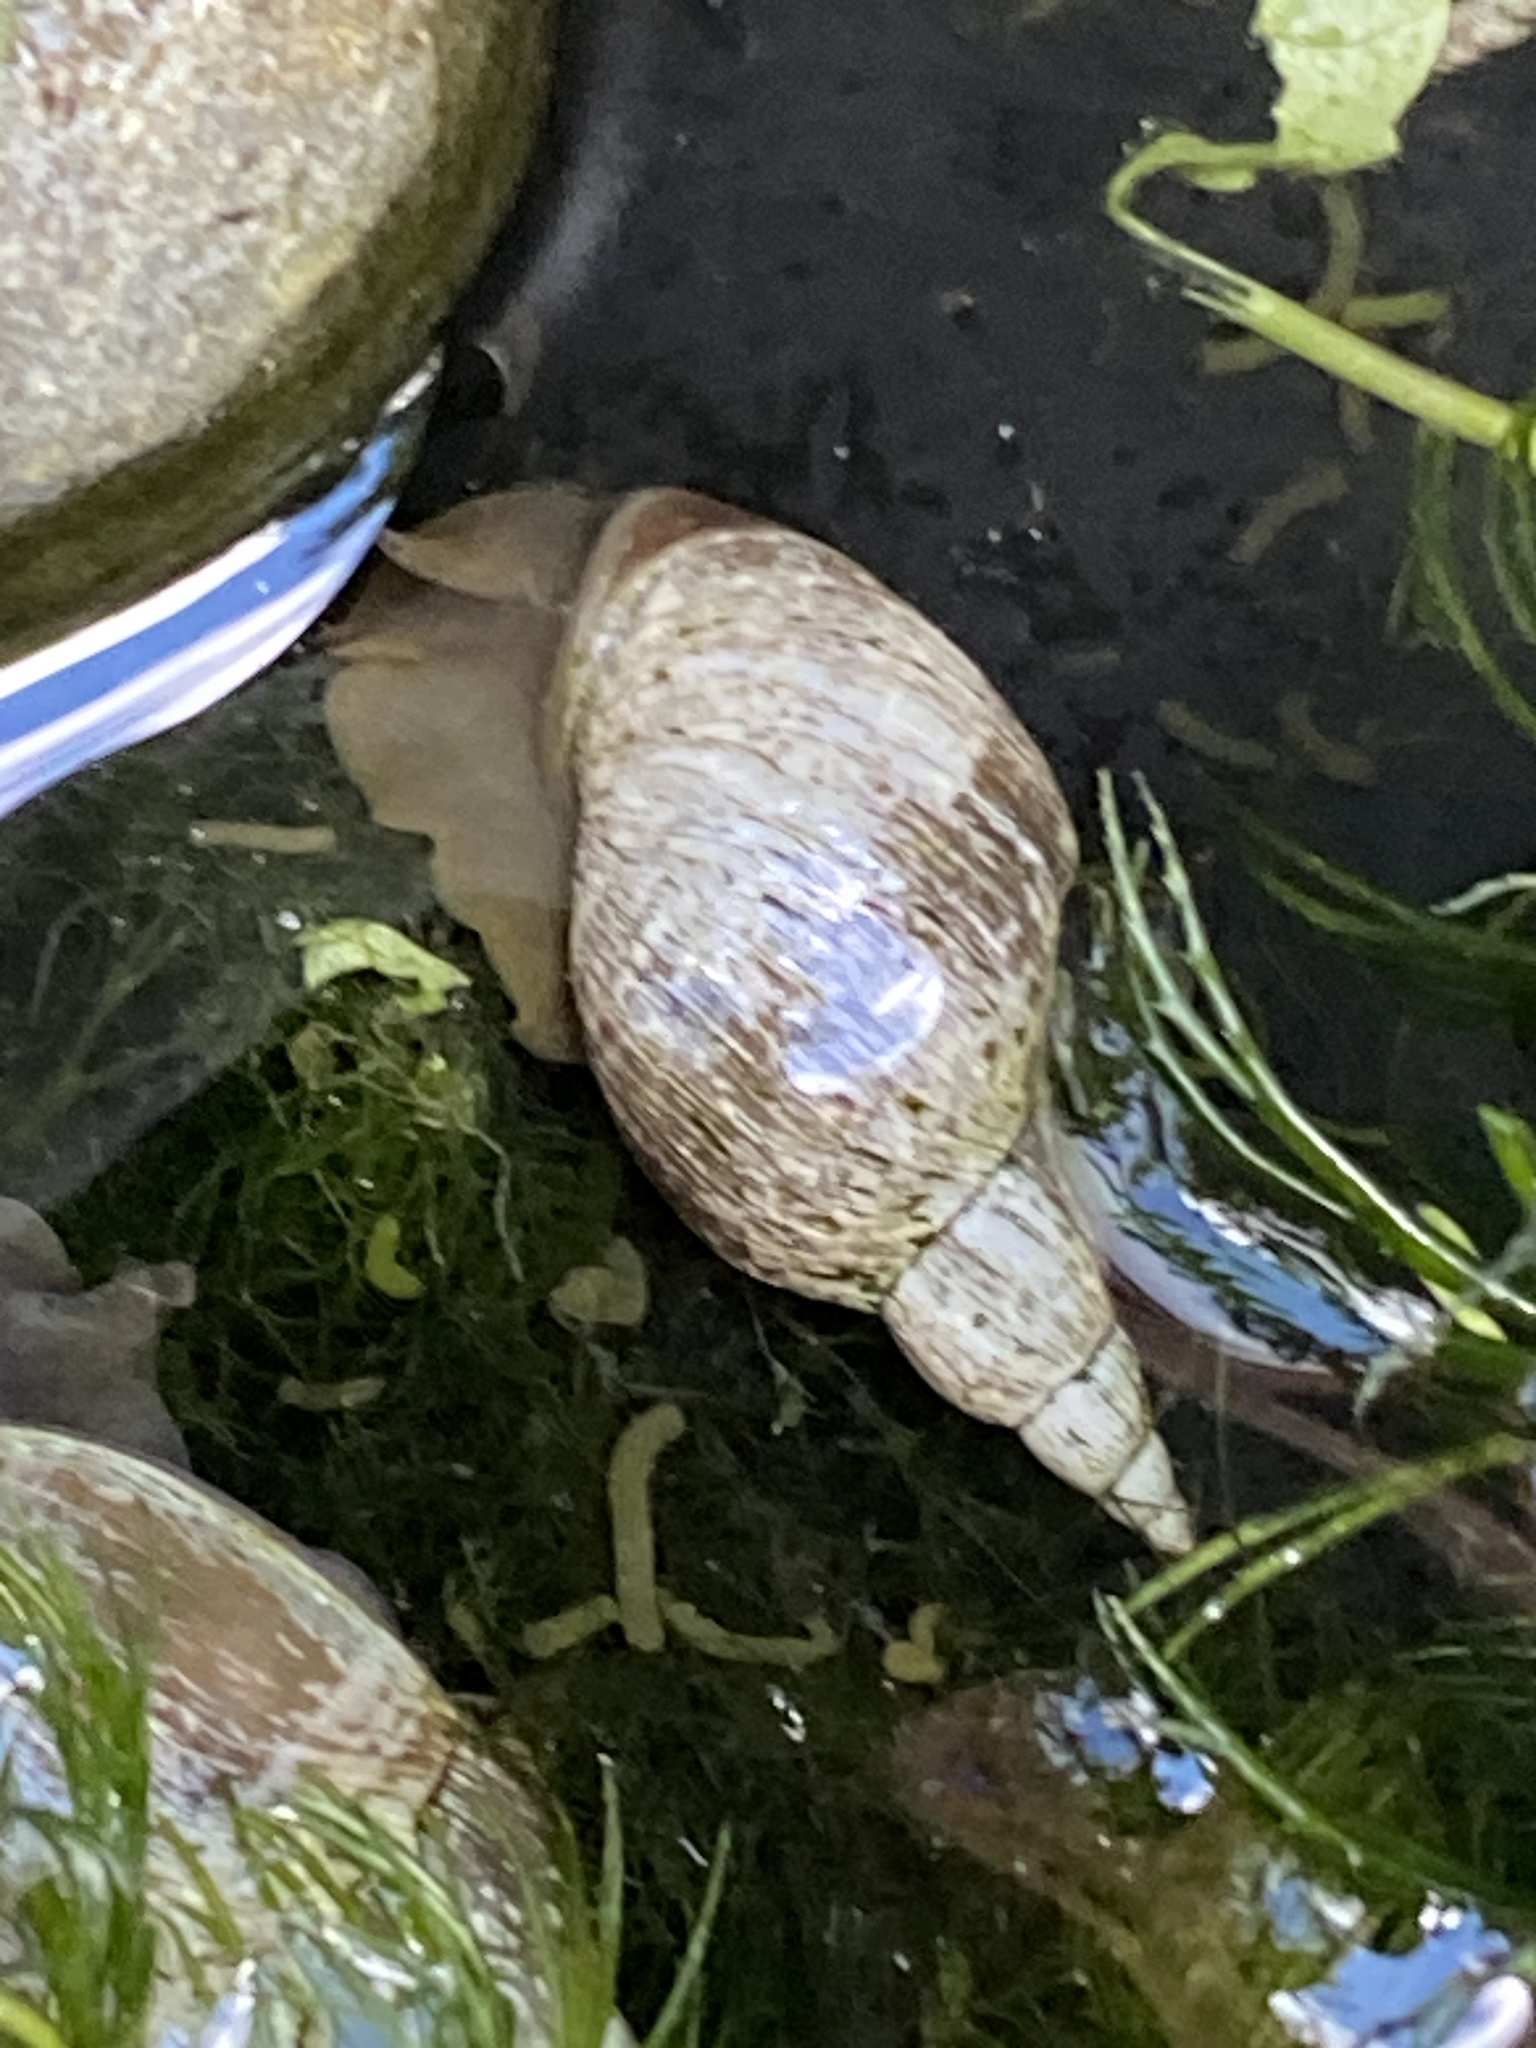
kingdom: Animalia
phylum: Mollusca
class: Gastropoda
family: Lymnaeidae
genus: Lymnaea
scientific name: Lymnaea stagnalis
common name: Great pond snail
